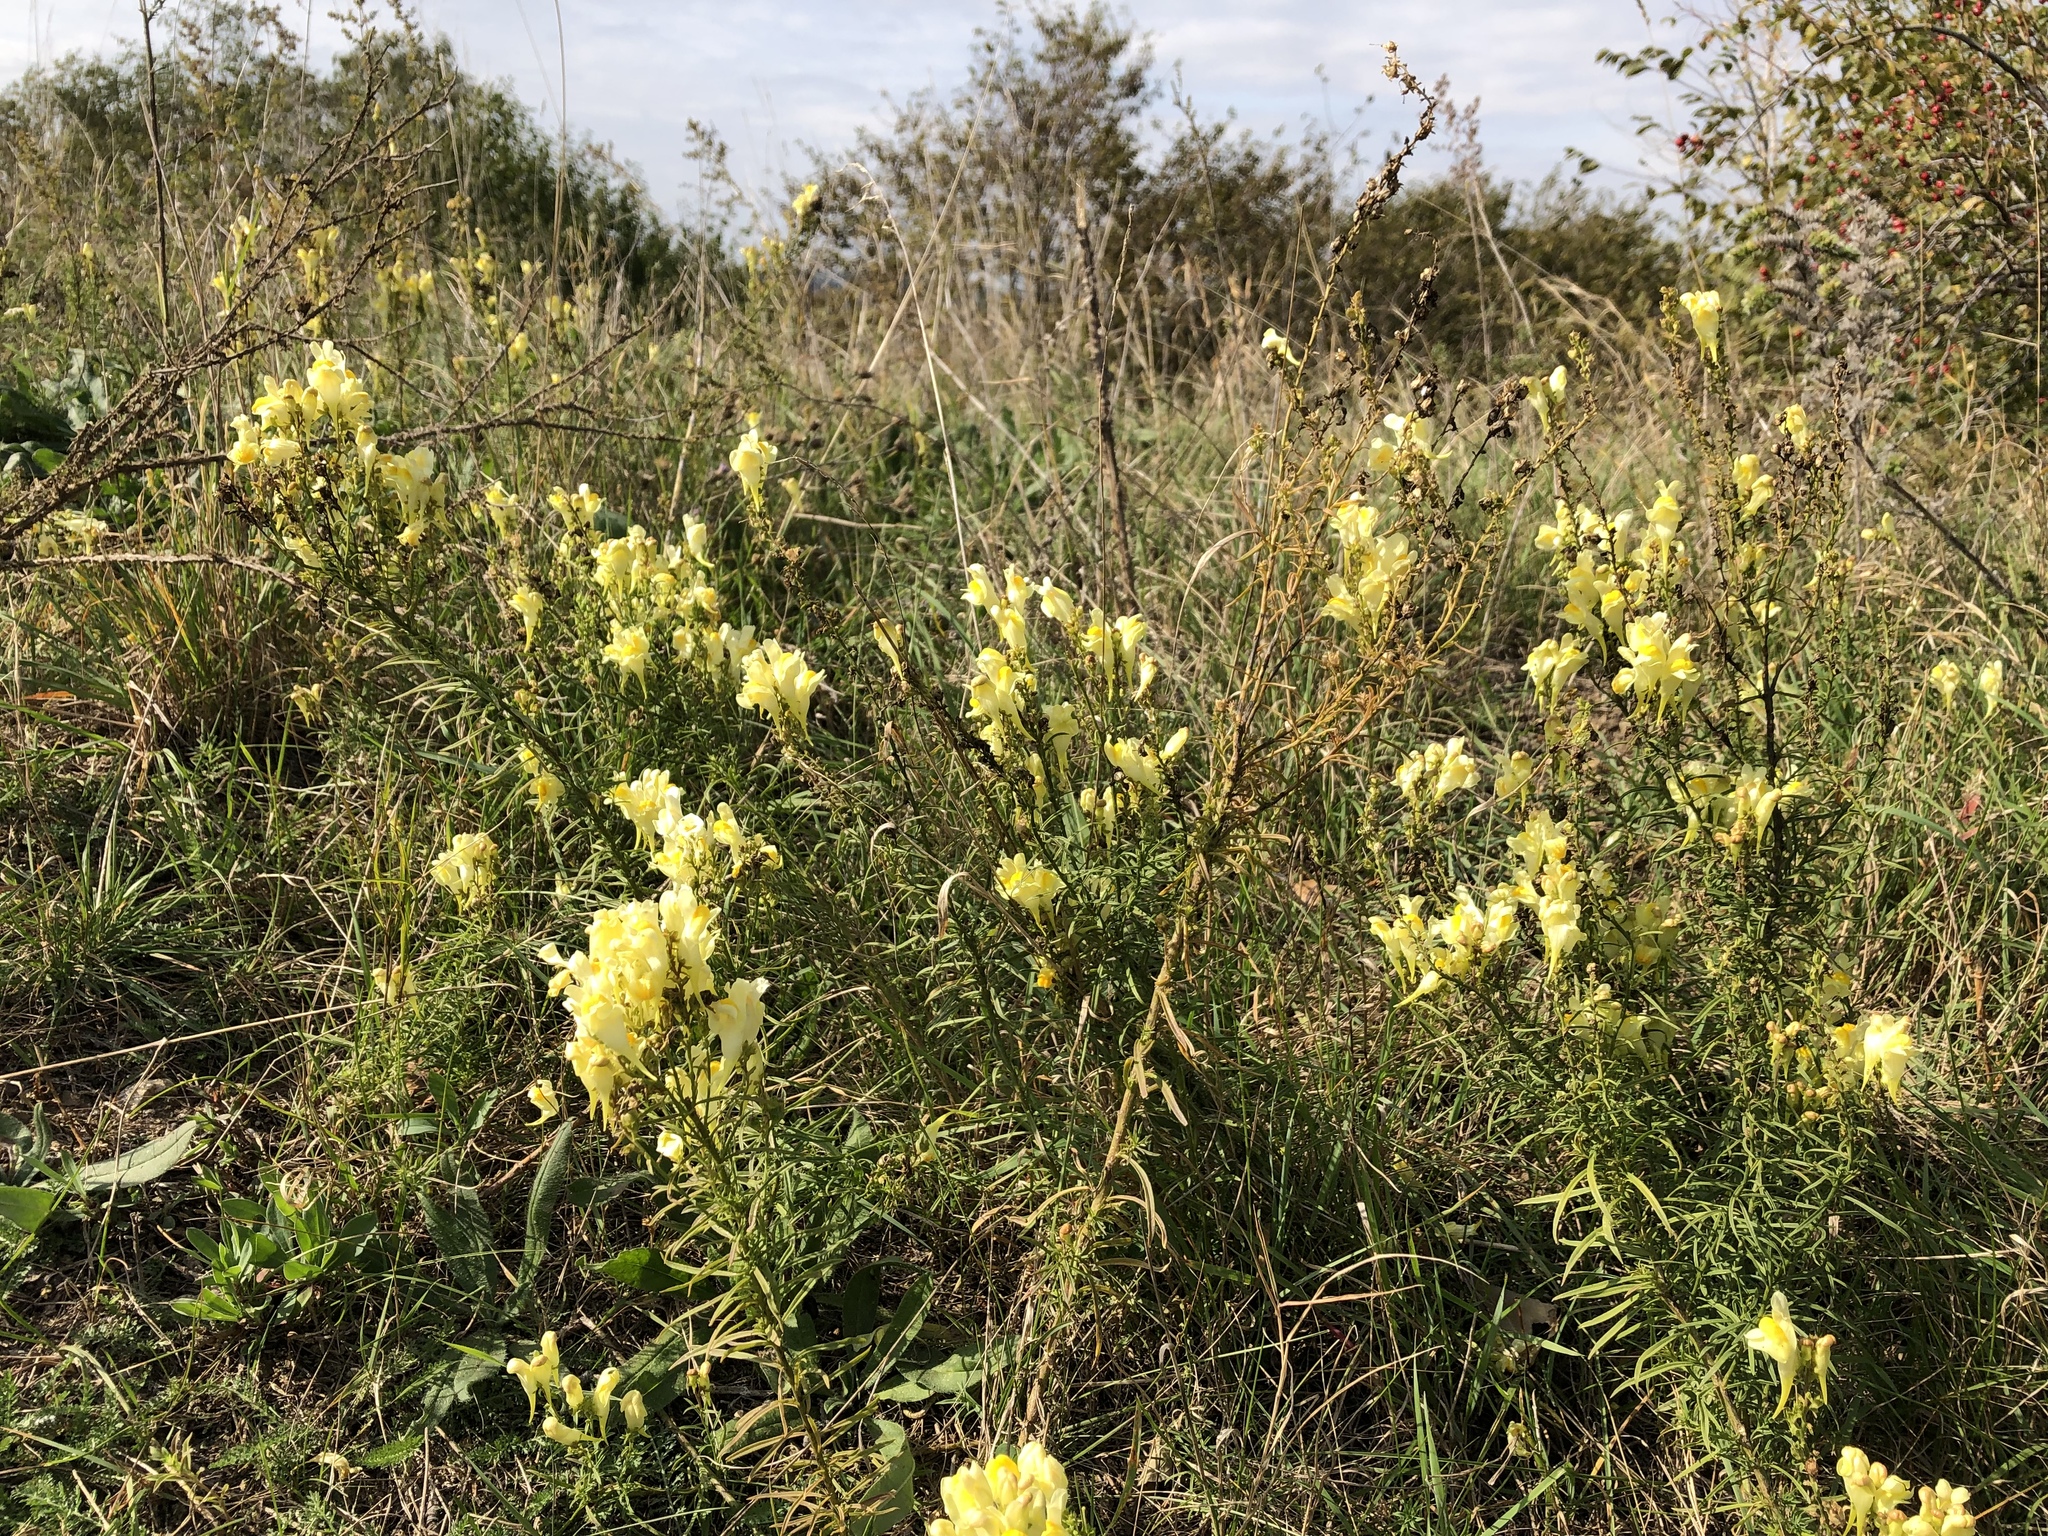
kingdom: Plantae
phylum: Tracheophyta
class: Magnoliopsida
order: Lamiales
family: Plantaginaceae
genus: Linaria
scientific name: Linaria vulgaris
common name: Butter and eggs
